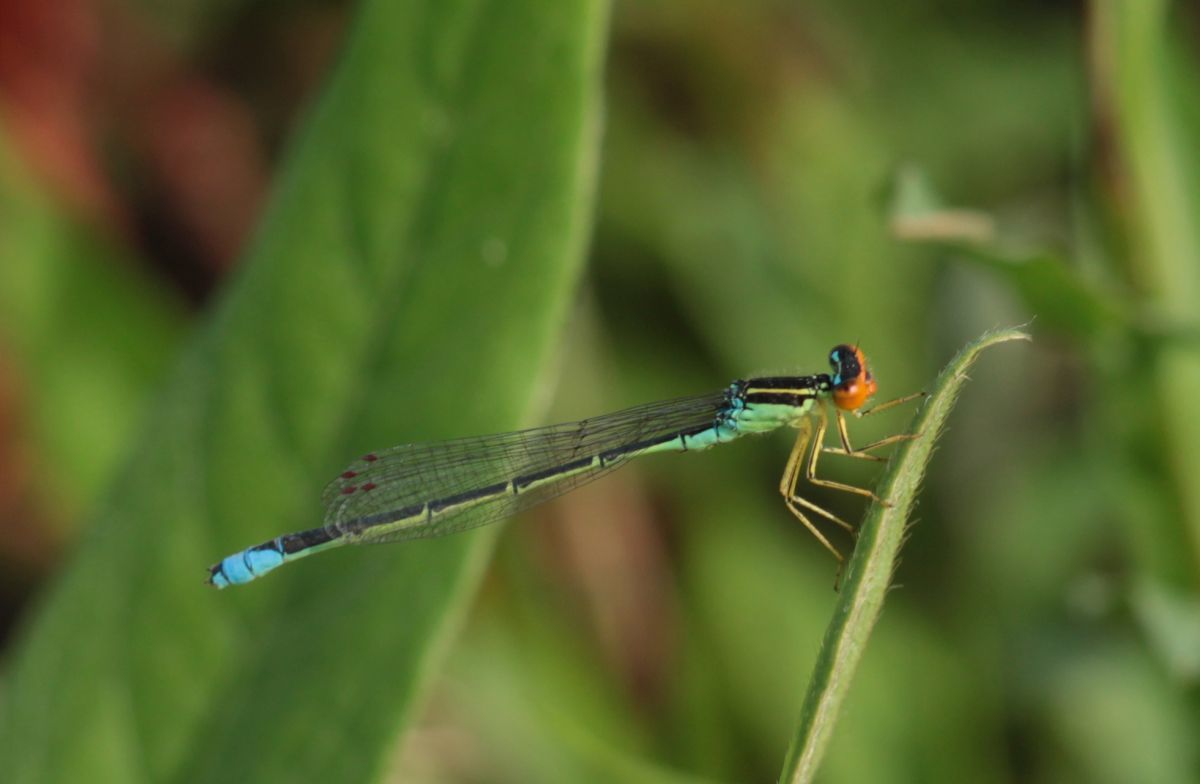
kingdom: Animalia
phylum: Arthropoda
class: Insecta
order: Odonata
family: Coenagrionidae
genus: Enallagma
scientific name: Enallagma antennatum
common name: Rainbow bluet
